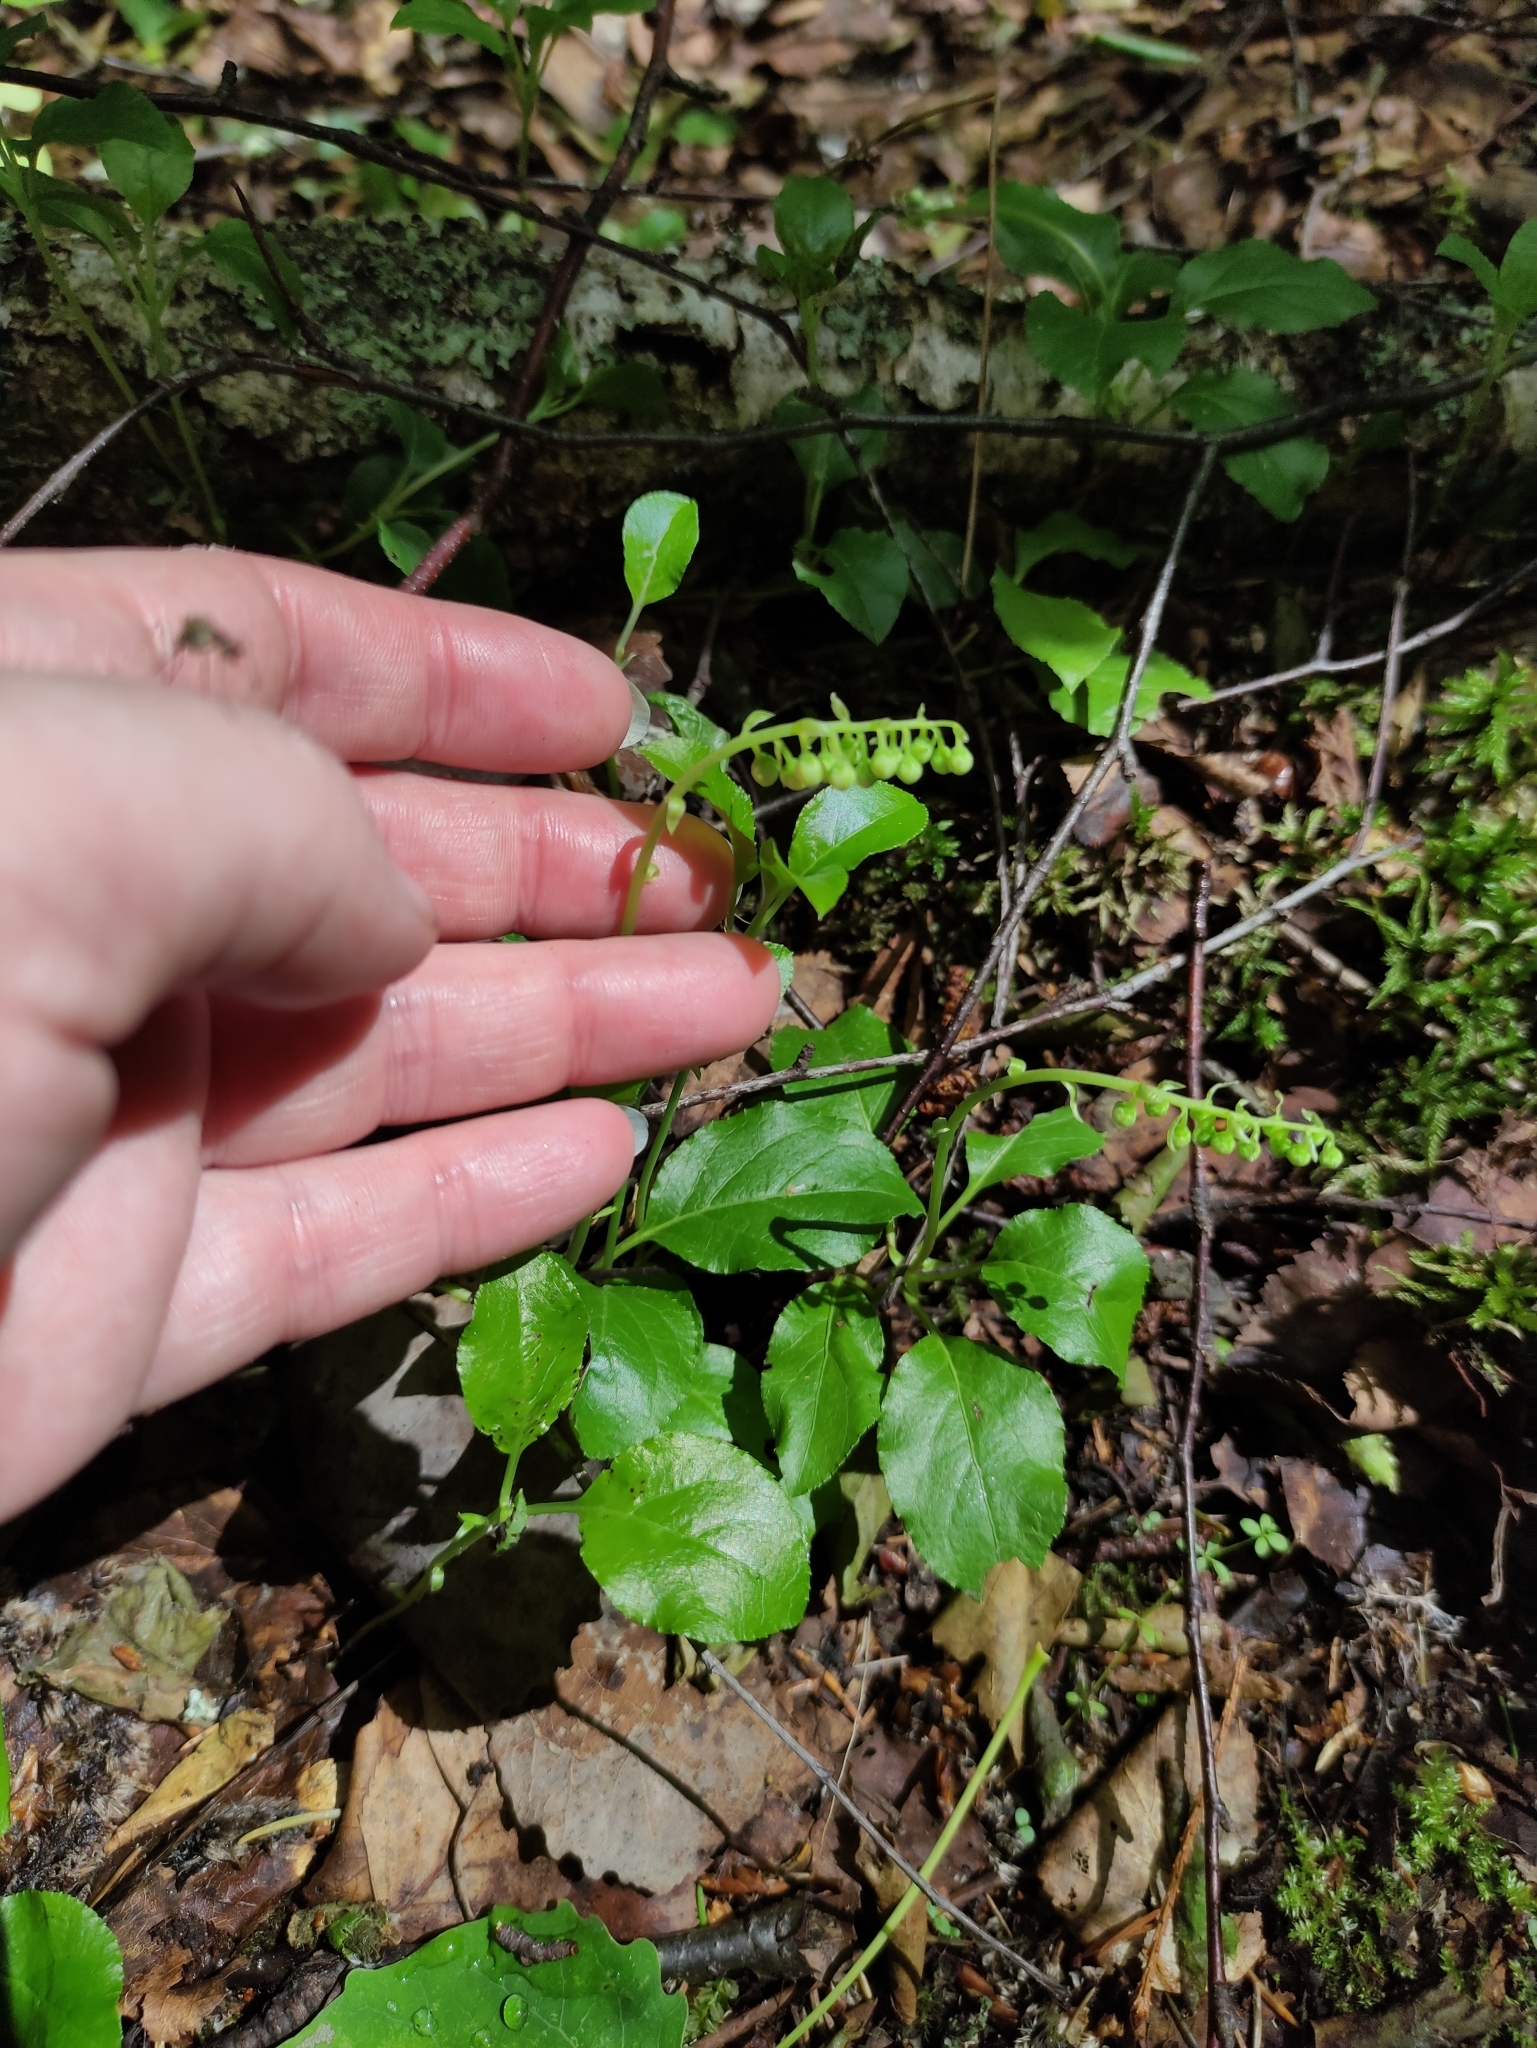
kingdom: Plantae
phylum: Tracheophyta
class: Magnoliopsida
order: Ericales
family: Ericaceae
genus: Orthilia
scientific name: Orthilia secunda
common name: One-sided orthilia
